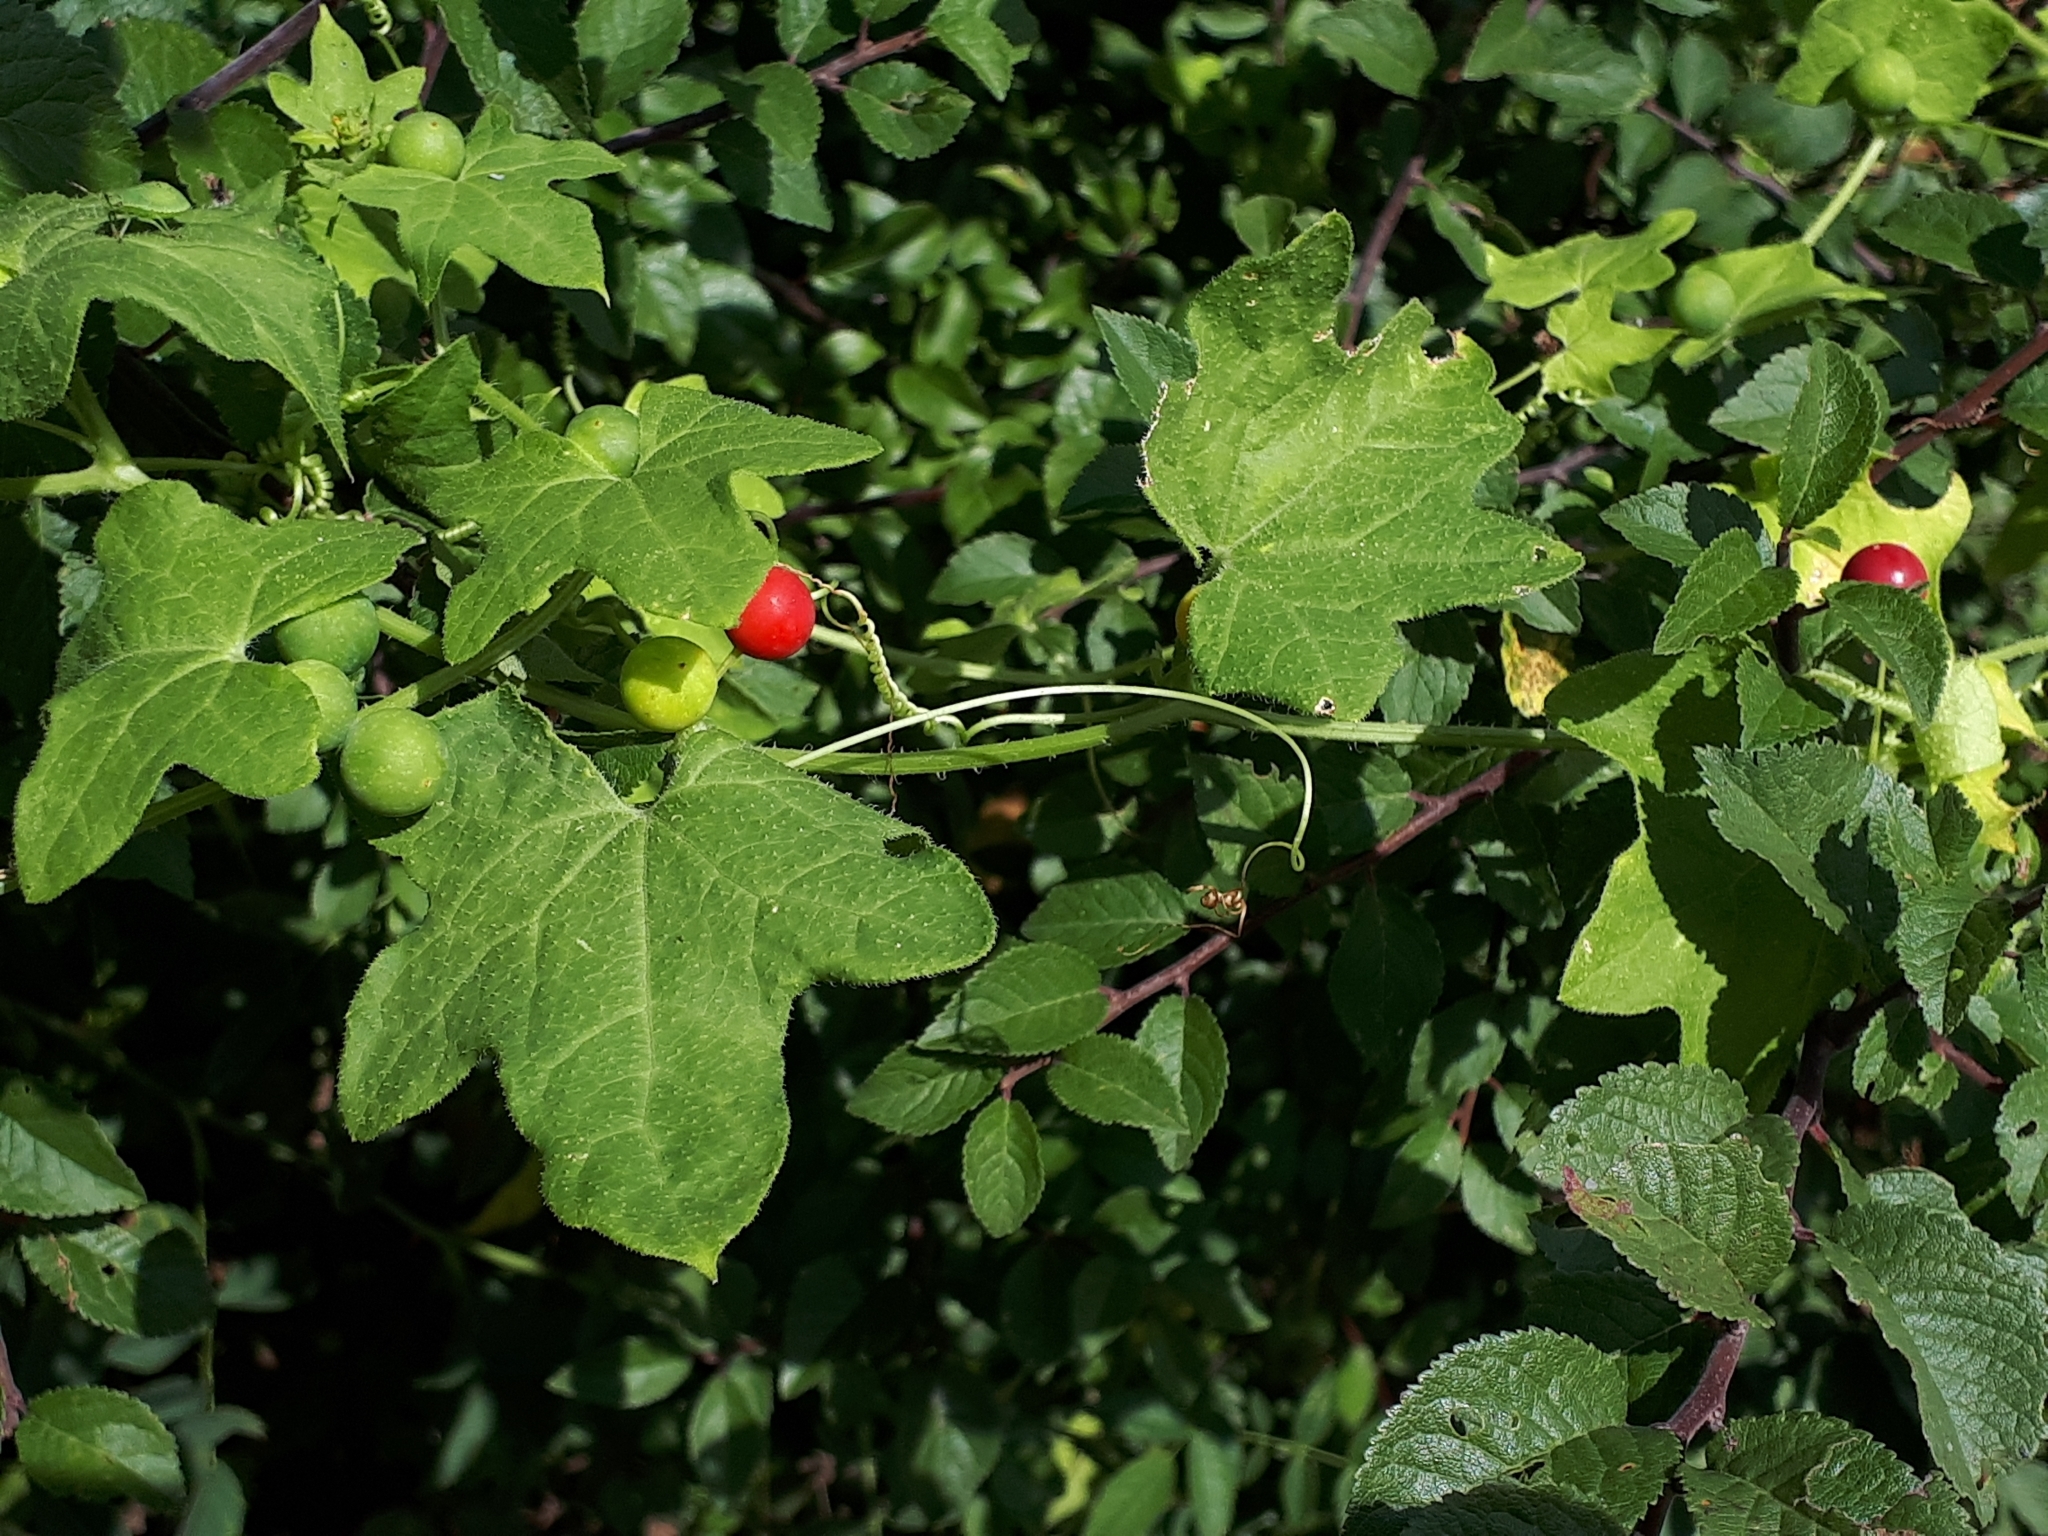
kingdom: Plantae
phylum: Tracheophyta
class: Magnoliopsida
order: Cucurbitales
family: Cucurbitaceae
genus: Bryonia
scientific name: Bryonia cretica
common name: Cretan bryony
